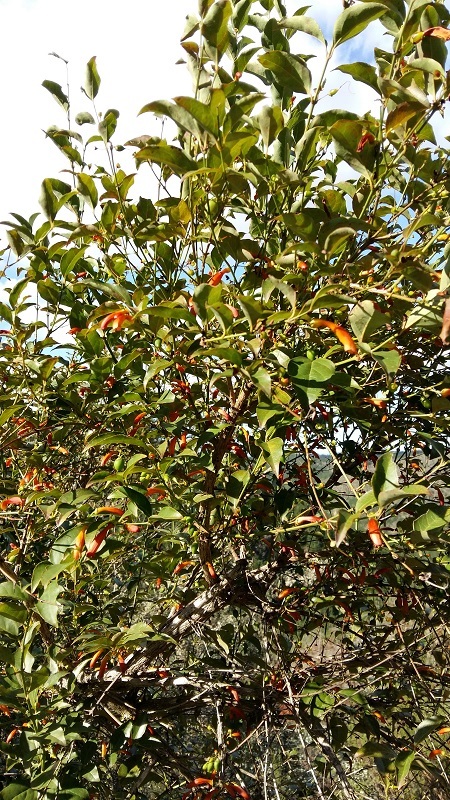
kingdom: Plantae
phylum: Tracheophyta
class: Magnoliopsida
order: Lamiales
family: Stilbaceae
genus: Halleria
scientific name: Halleria lucida
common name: Tree fuschia
